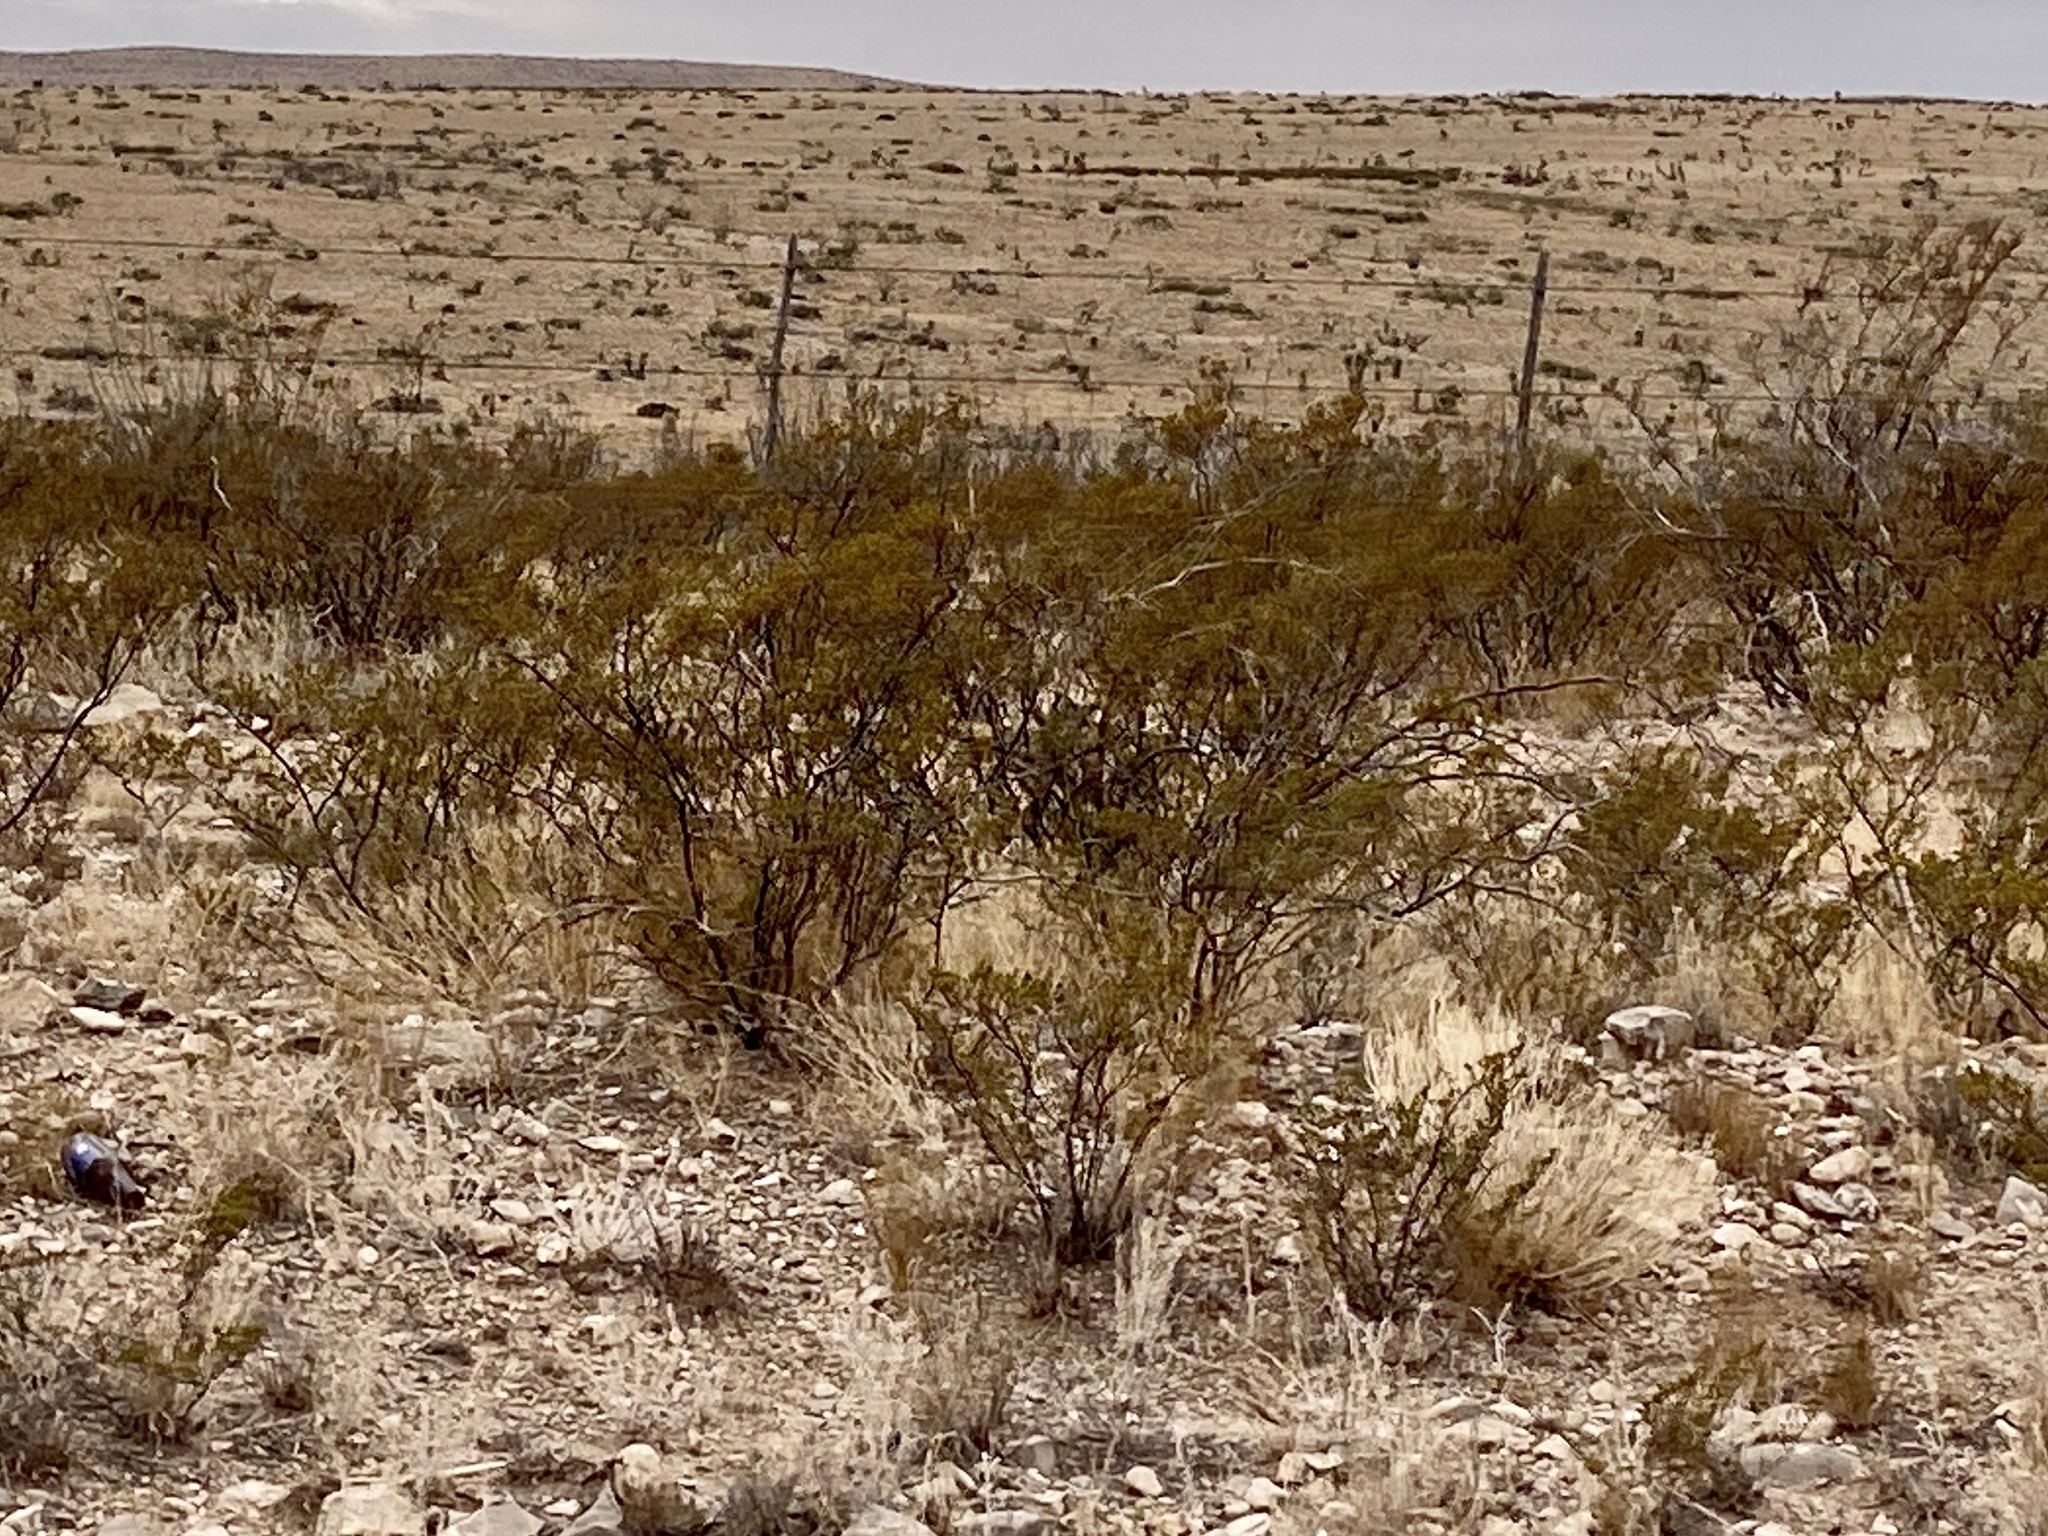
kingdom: Plantae
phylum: Tracheophyta
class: Magnoliopsida
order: Zygophyllales
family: Zygophyllaceae
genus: Larrea
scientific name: Larrea tridentata
